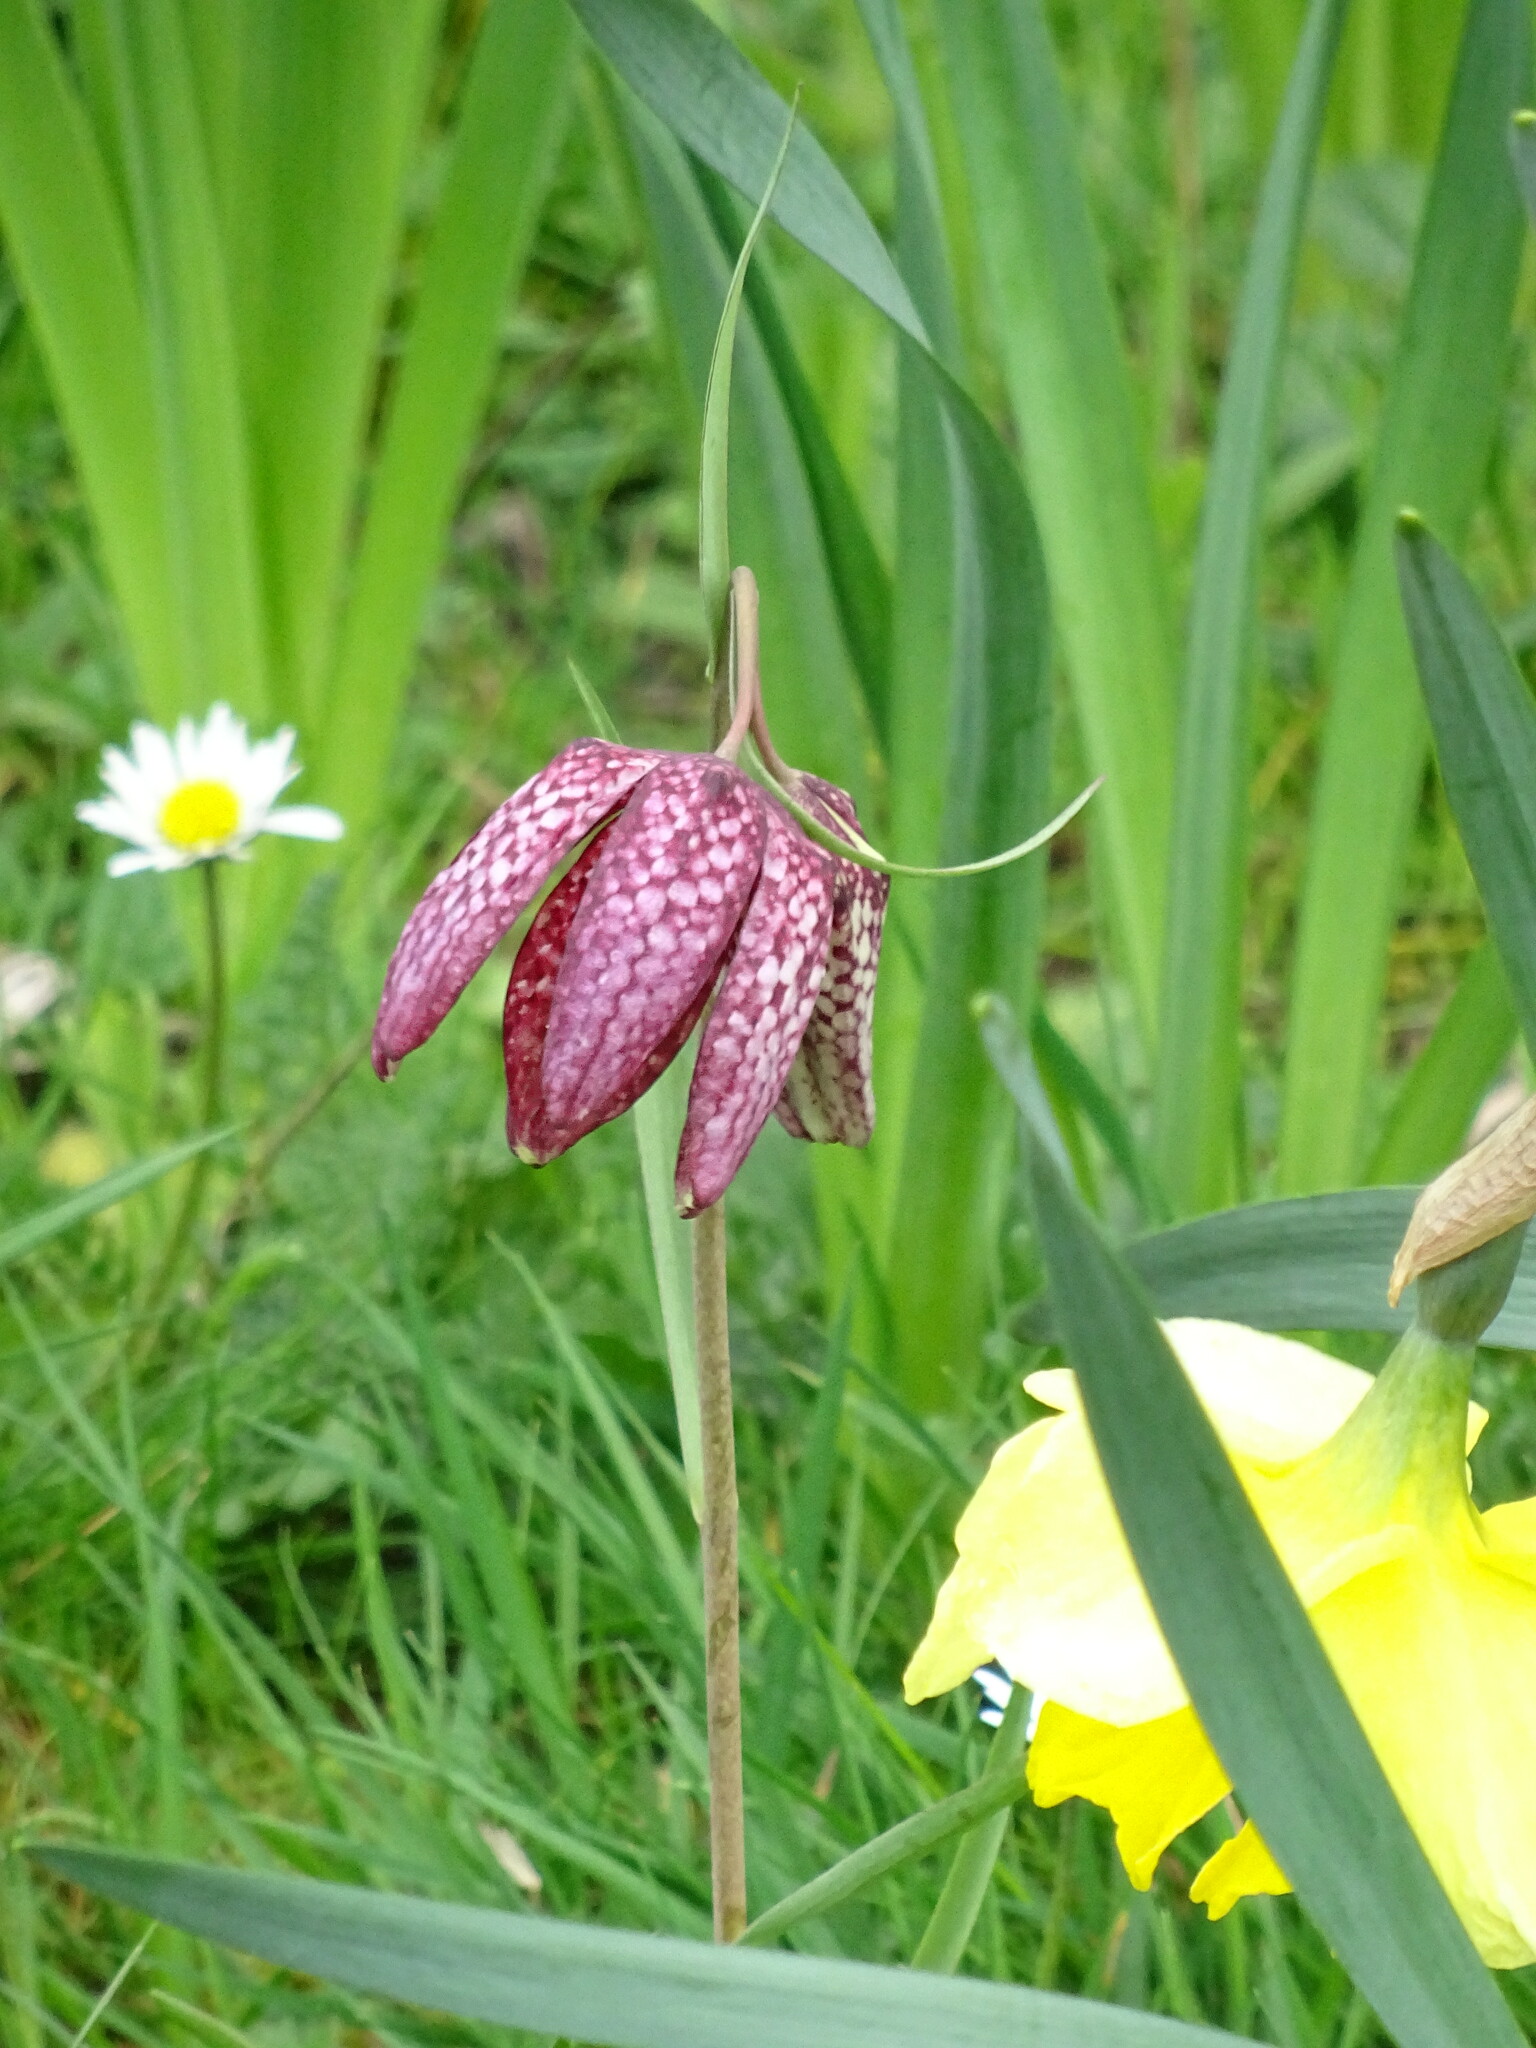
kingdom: Plantae
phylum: Tracheophyta
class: Liliopsida
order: Liliales
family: Liliaceae
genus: Fritillaria
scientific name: Fritillaria meleagris
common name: Fritillary
